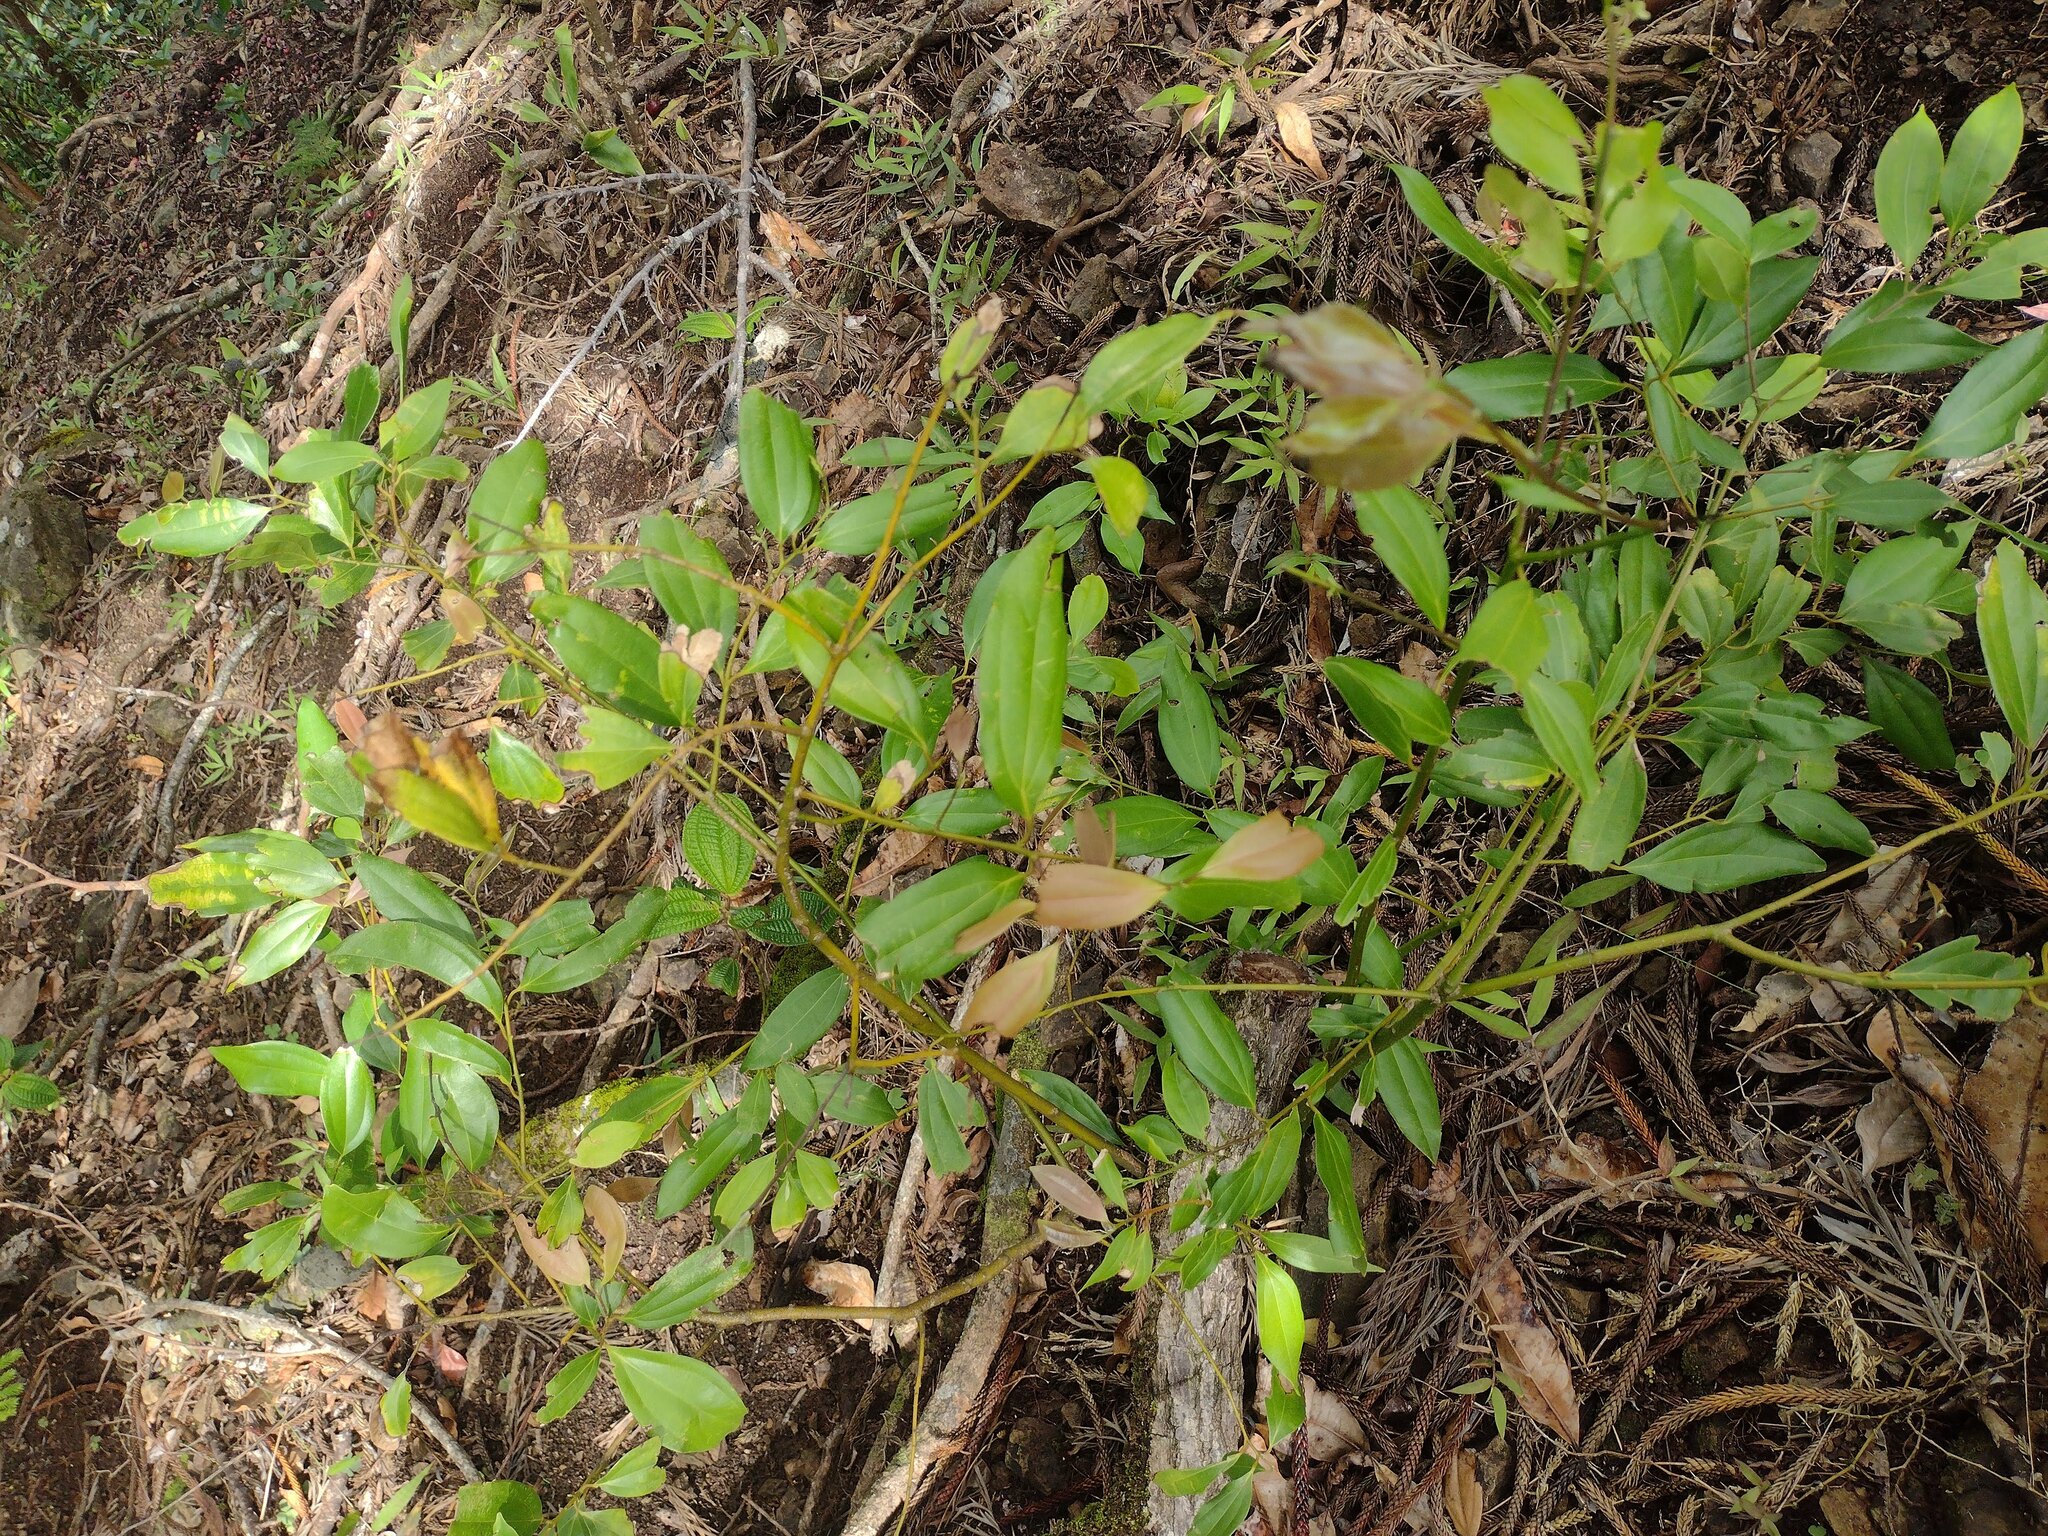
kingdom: Plantae
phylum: Tracheophyta
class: Magnoliopsida
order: Laurales
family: Lauraceae
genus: Cinnamomum
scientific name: Cinnamomum burmanni
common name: Padang cassia
